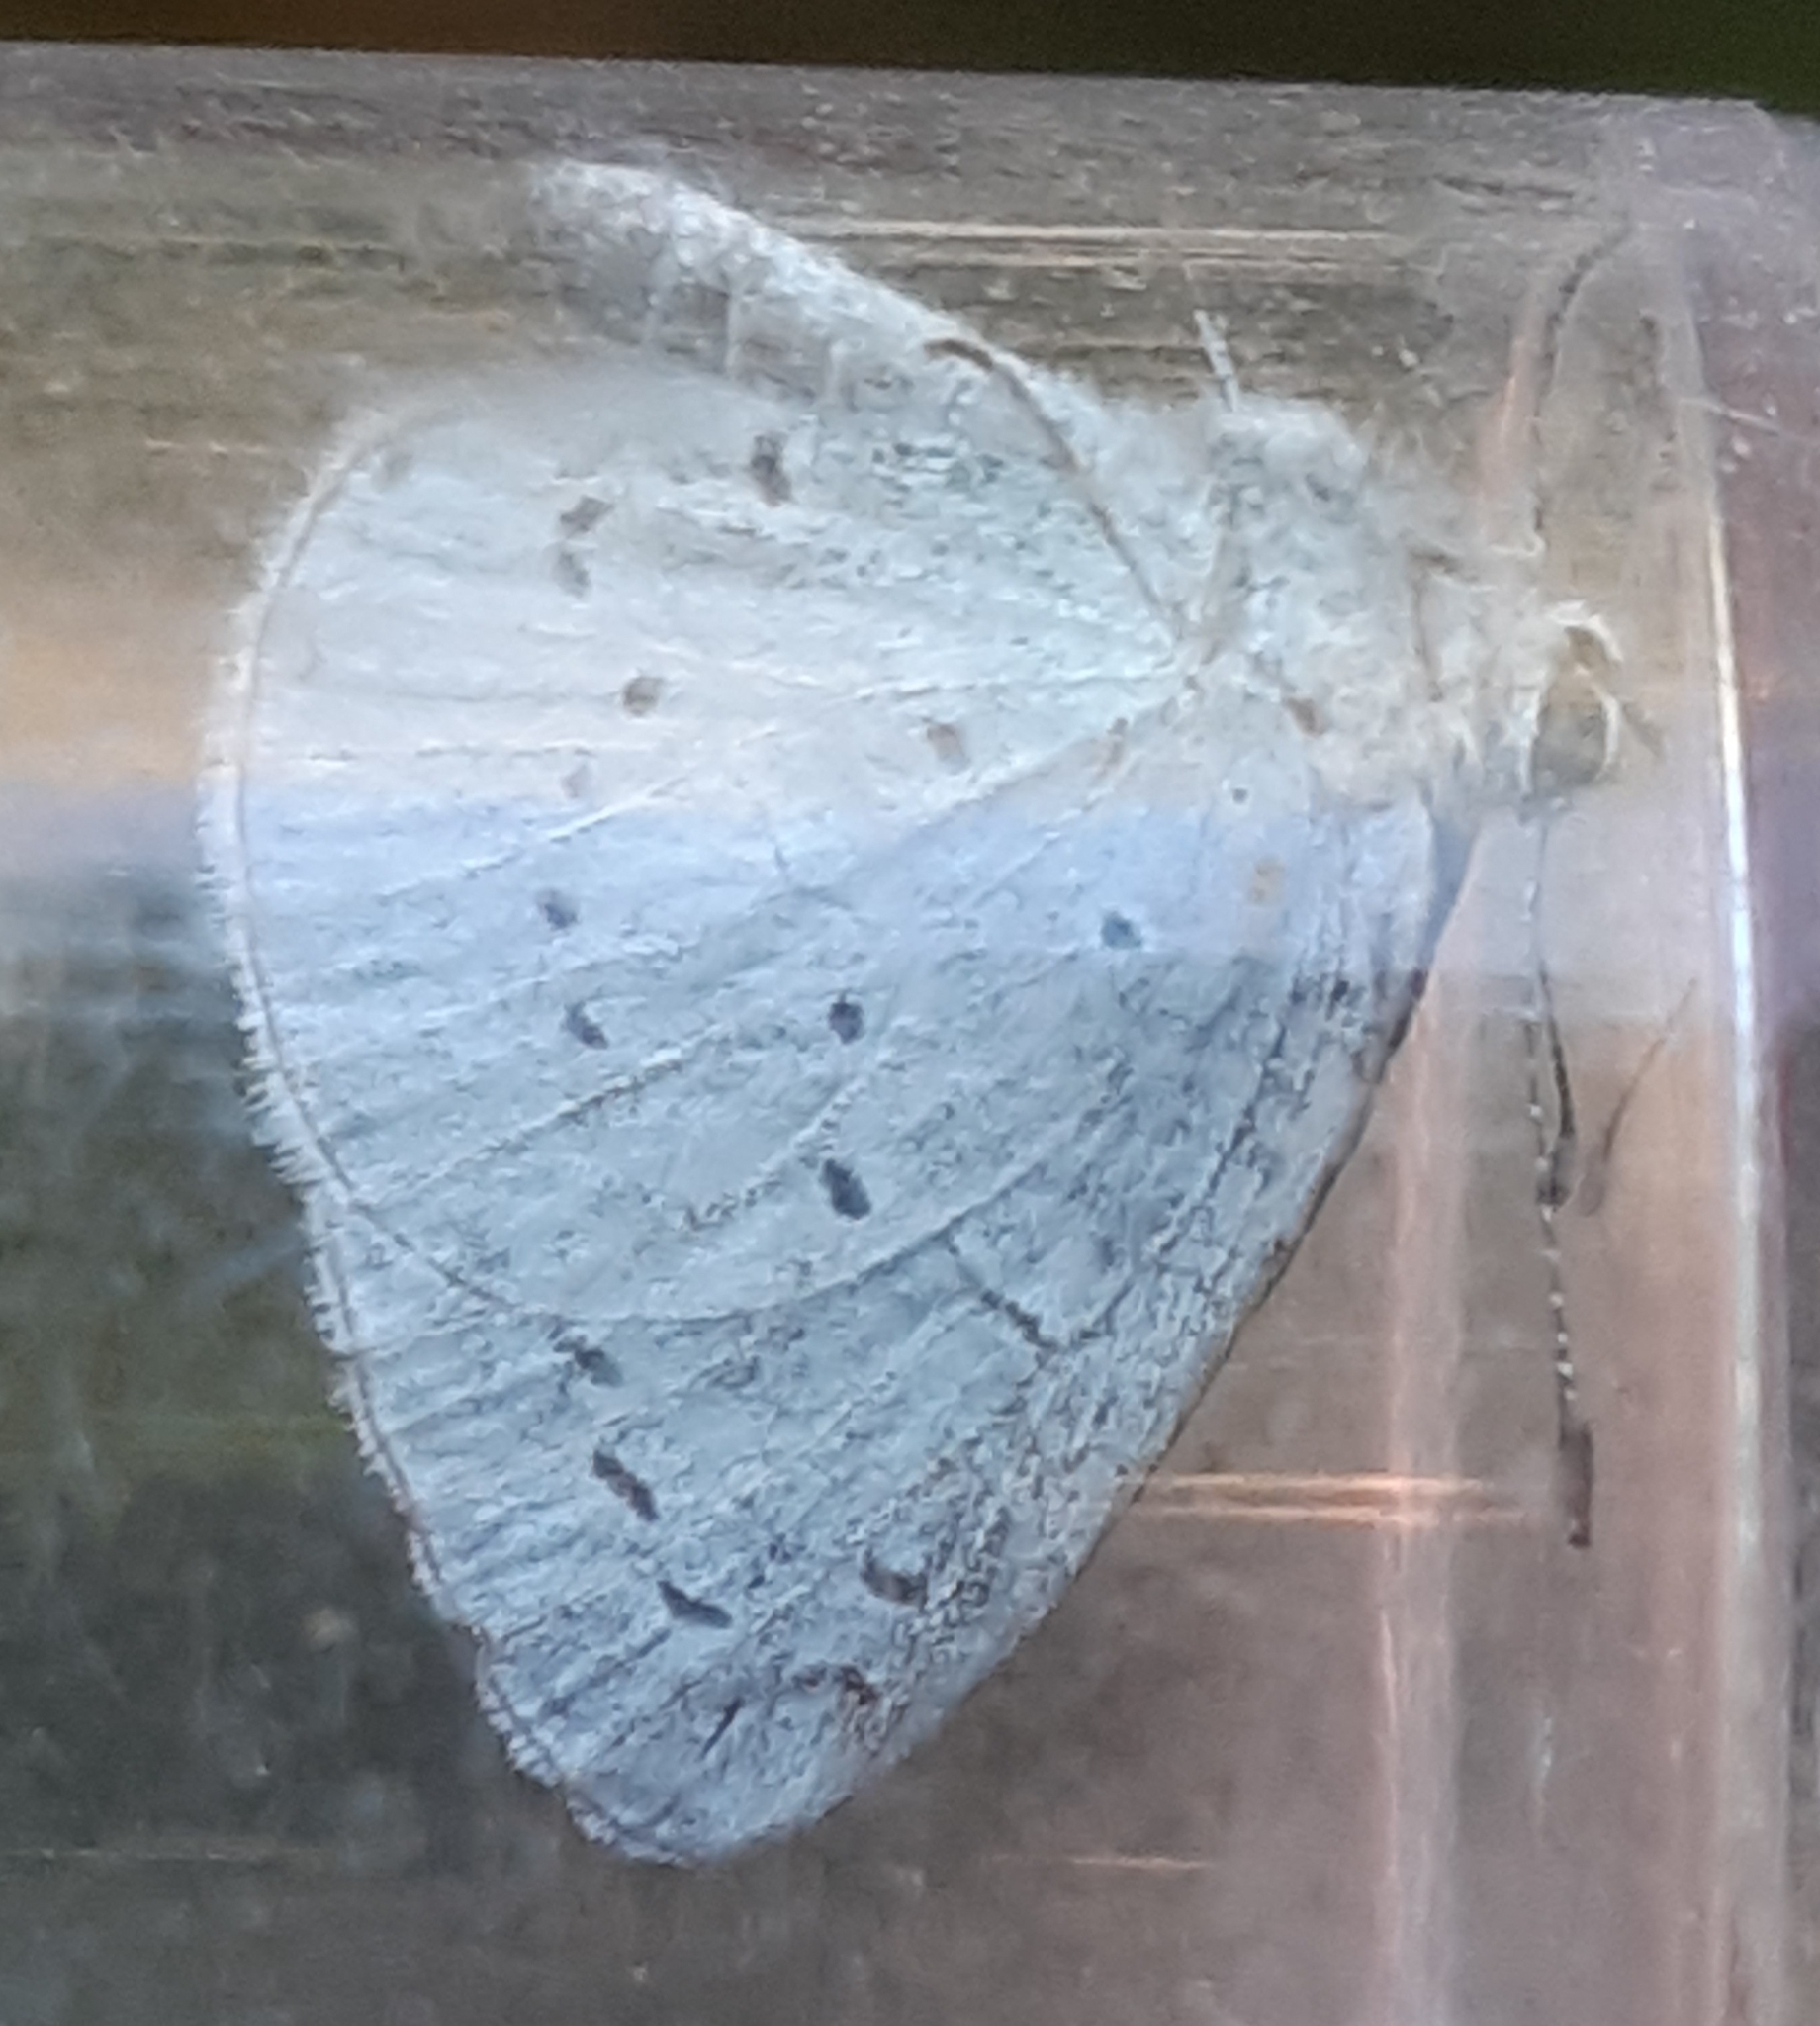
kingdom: Animalia
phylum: Arthropoda
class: Insecta
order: Lepidoptera
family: Lycaenidae
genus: Celastrina
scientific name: Celastrina argiolus
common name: Holly blue
